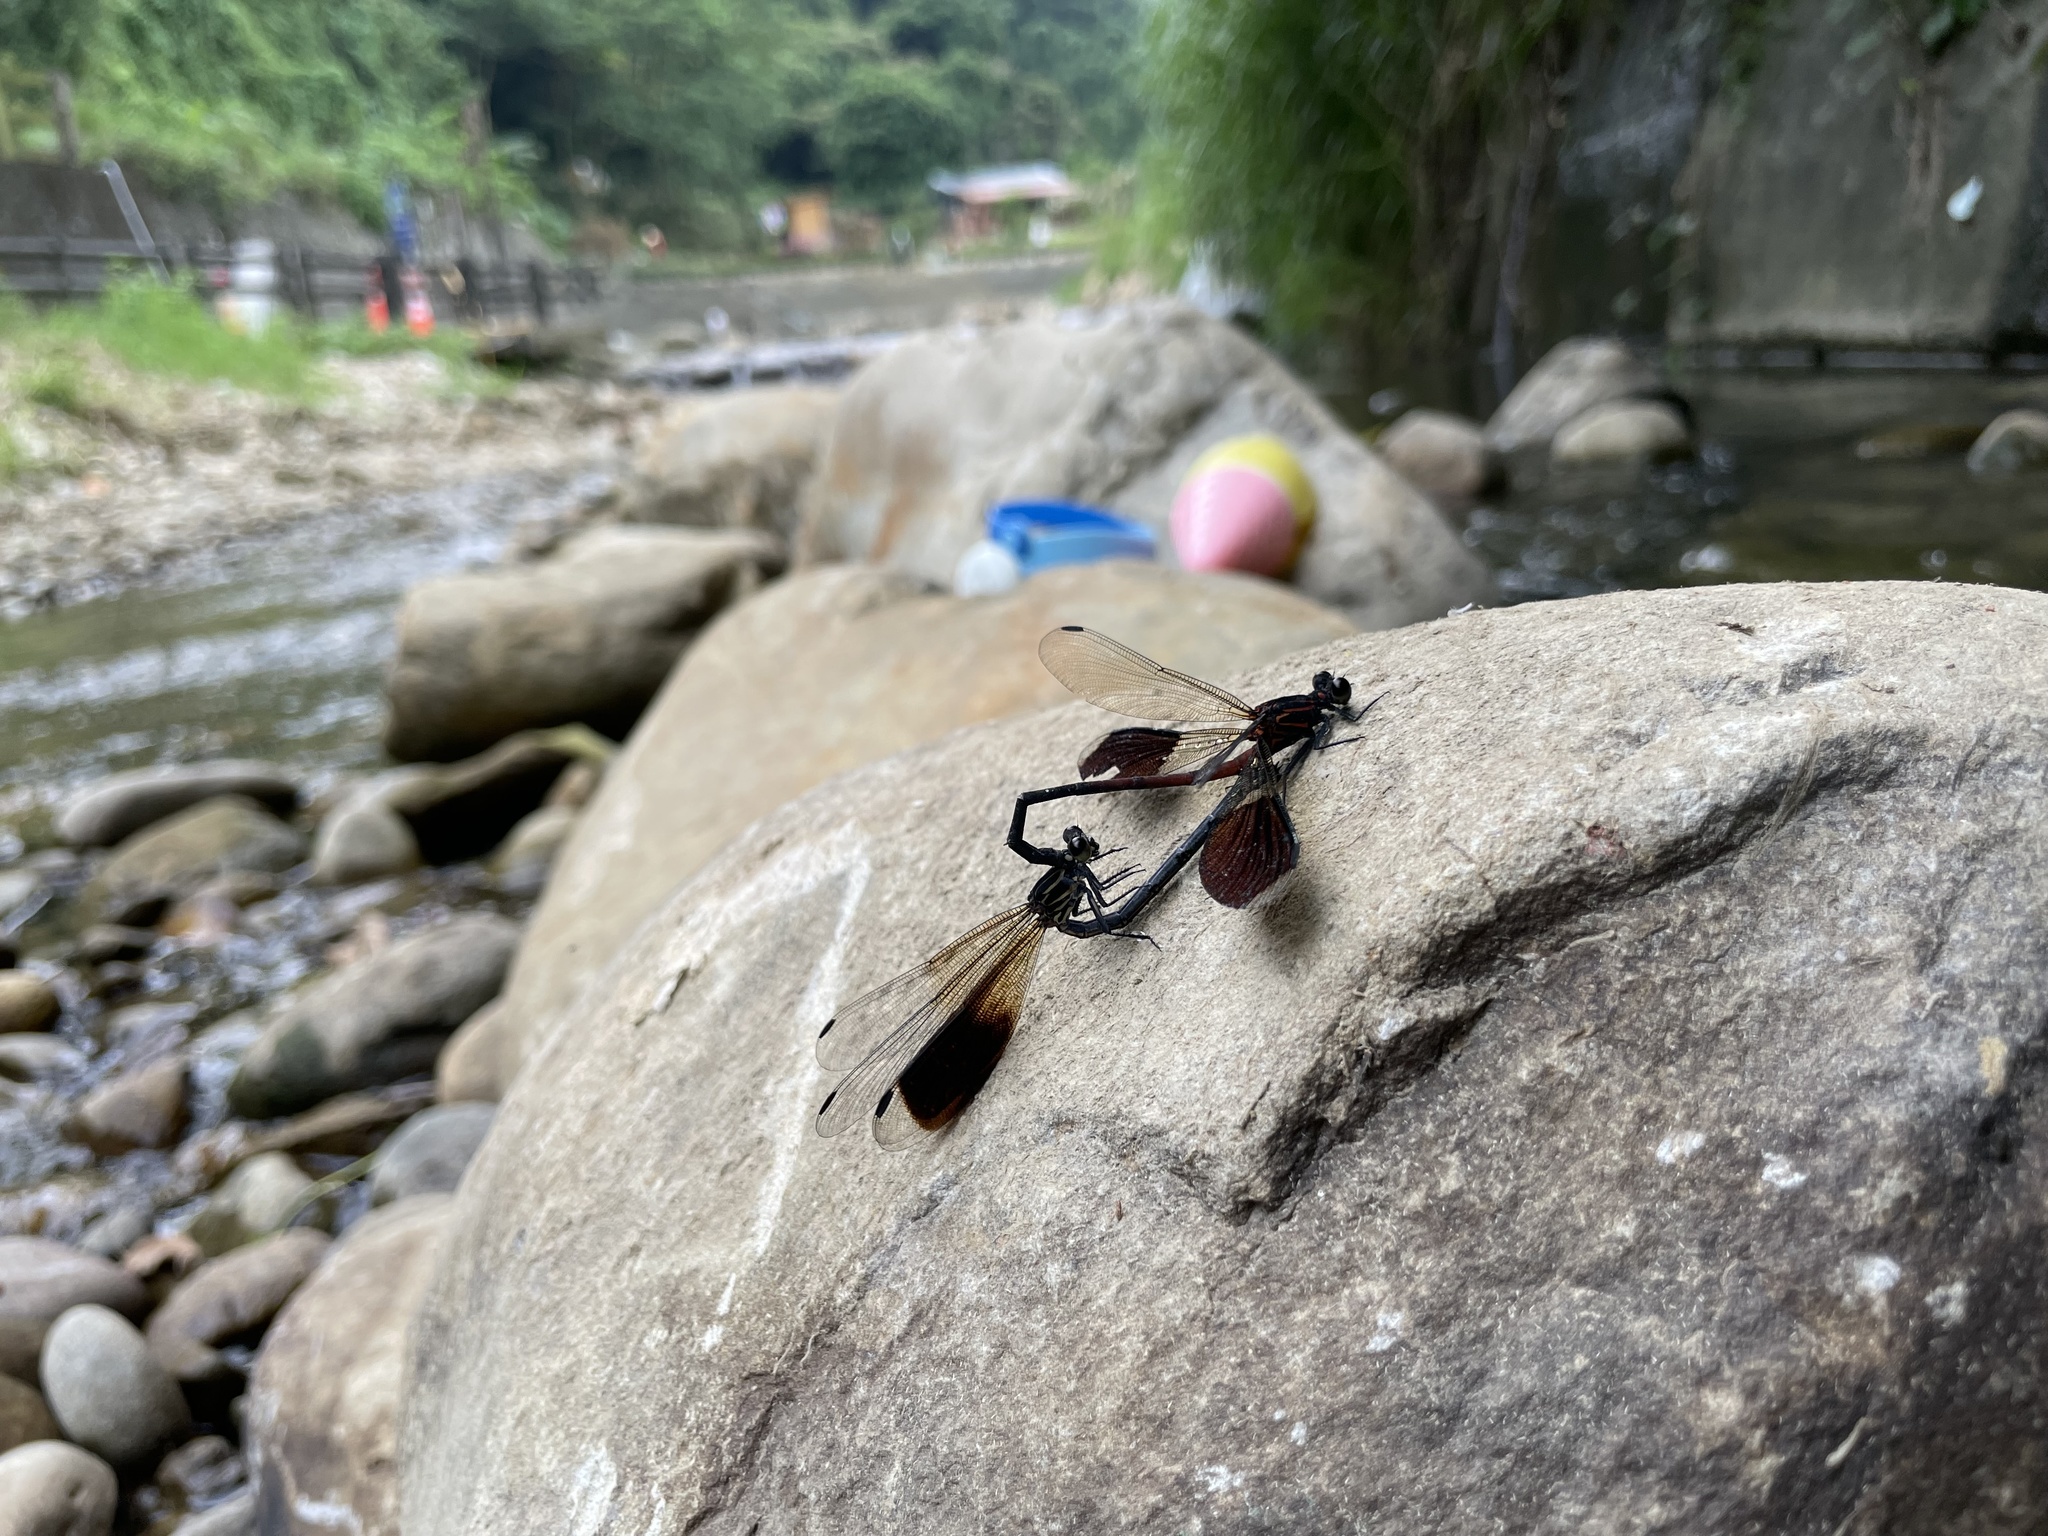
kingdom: Animalia
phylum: Arthropoda
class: Insecta
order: Odonata
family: Euphaeidae
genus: Euphaea
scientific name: Euphaea formosa
